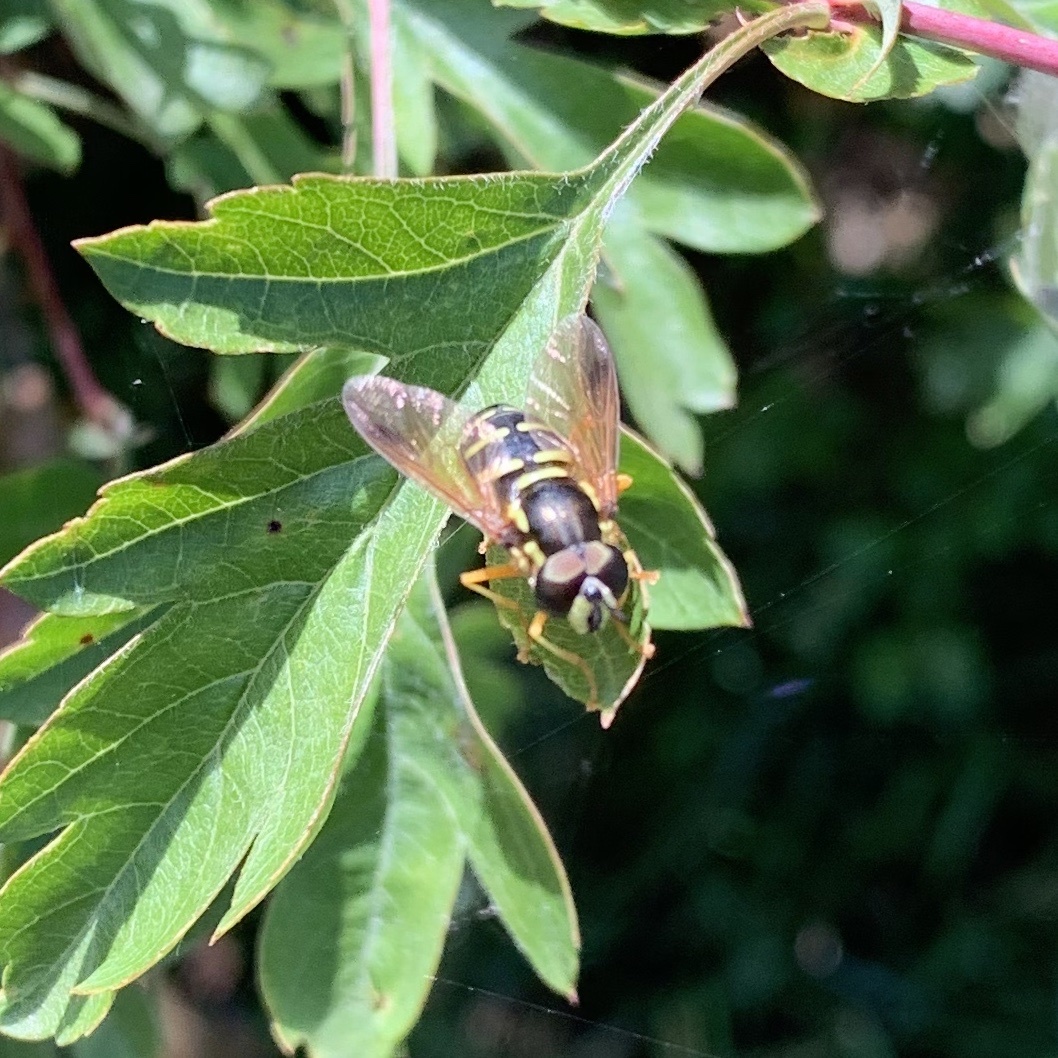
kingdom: Animalia
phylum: Arthropoda
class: Insecta
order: Diptera
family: Syrphidae
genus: Sericomyia
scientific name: Sericomyia silentis
